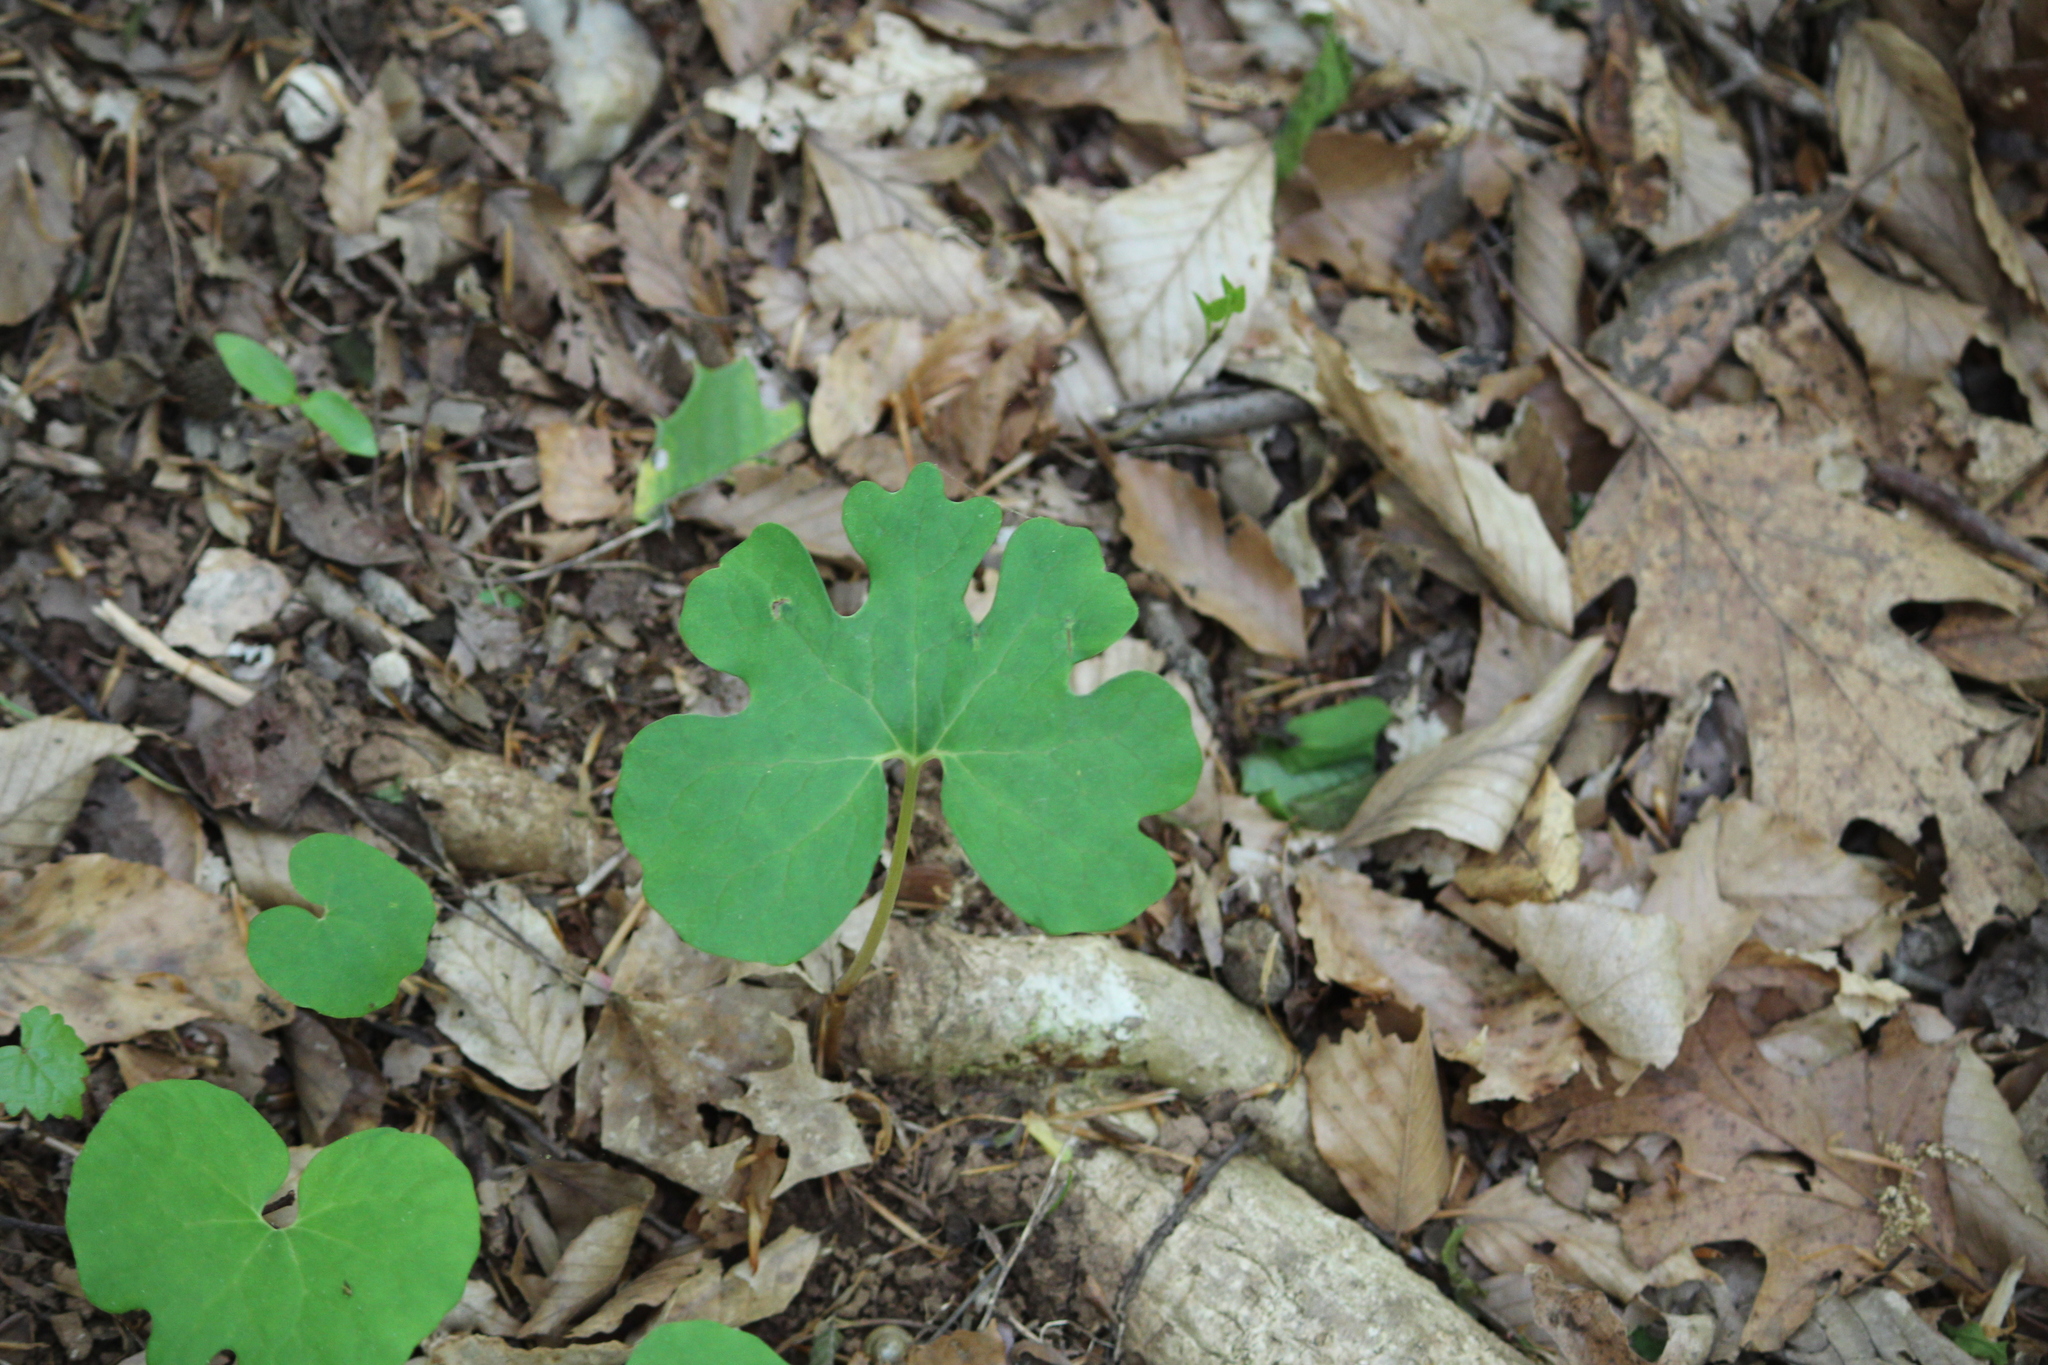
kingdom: Plantae
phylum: Tracheophyta
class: Magnoliopsida
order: Ranunculales
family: Papaveraceae
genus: Sanguinaria
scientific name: Sanguinaria canadensis
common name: Bloodroot
